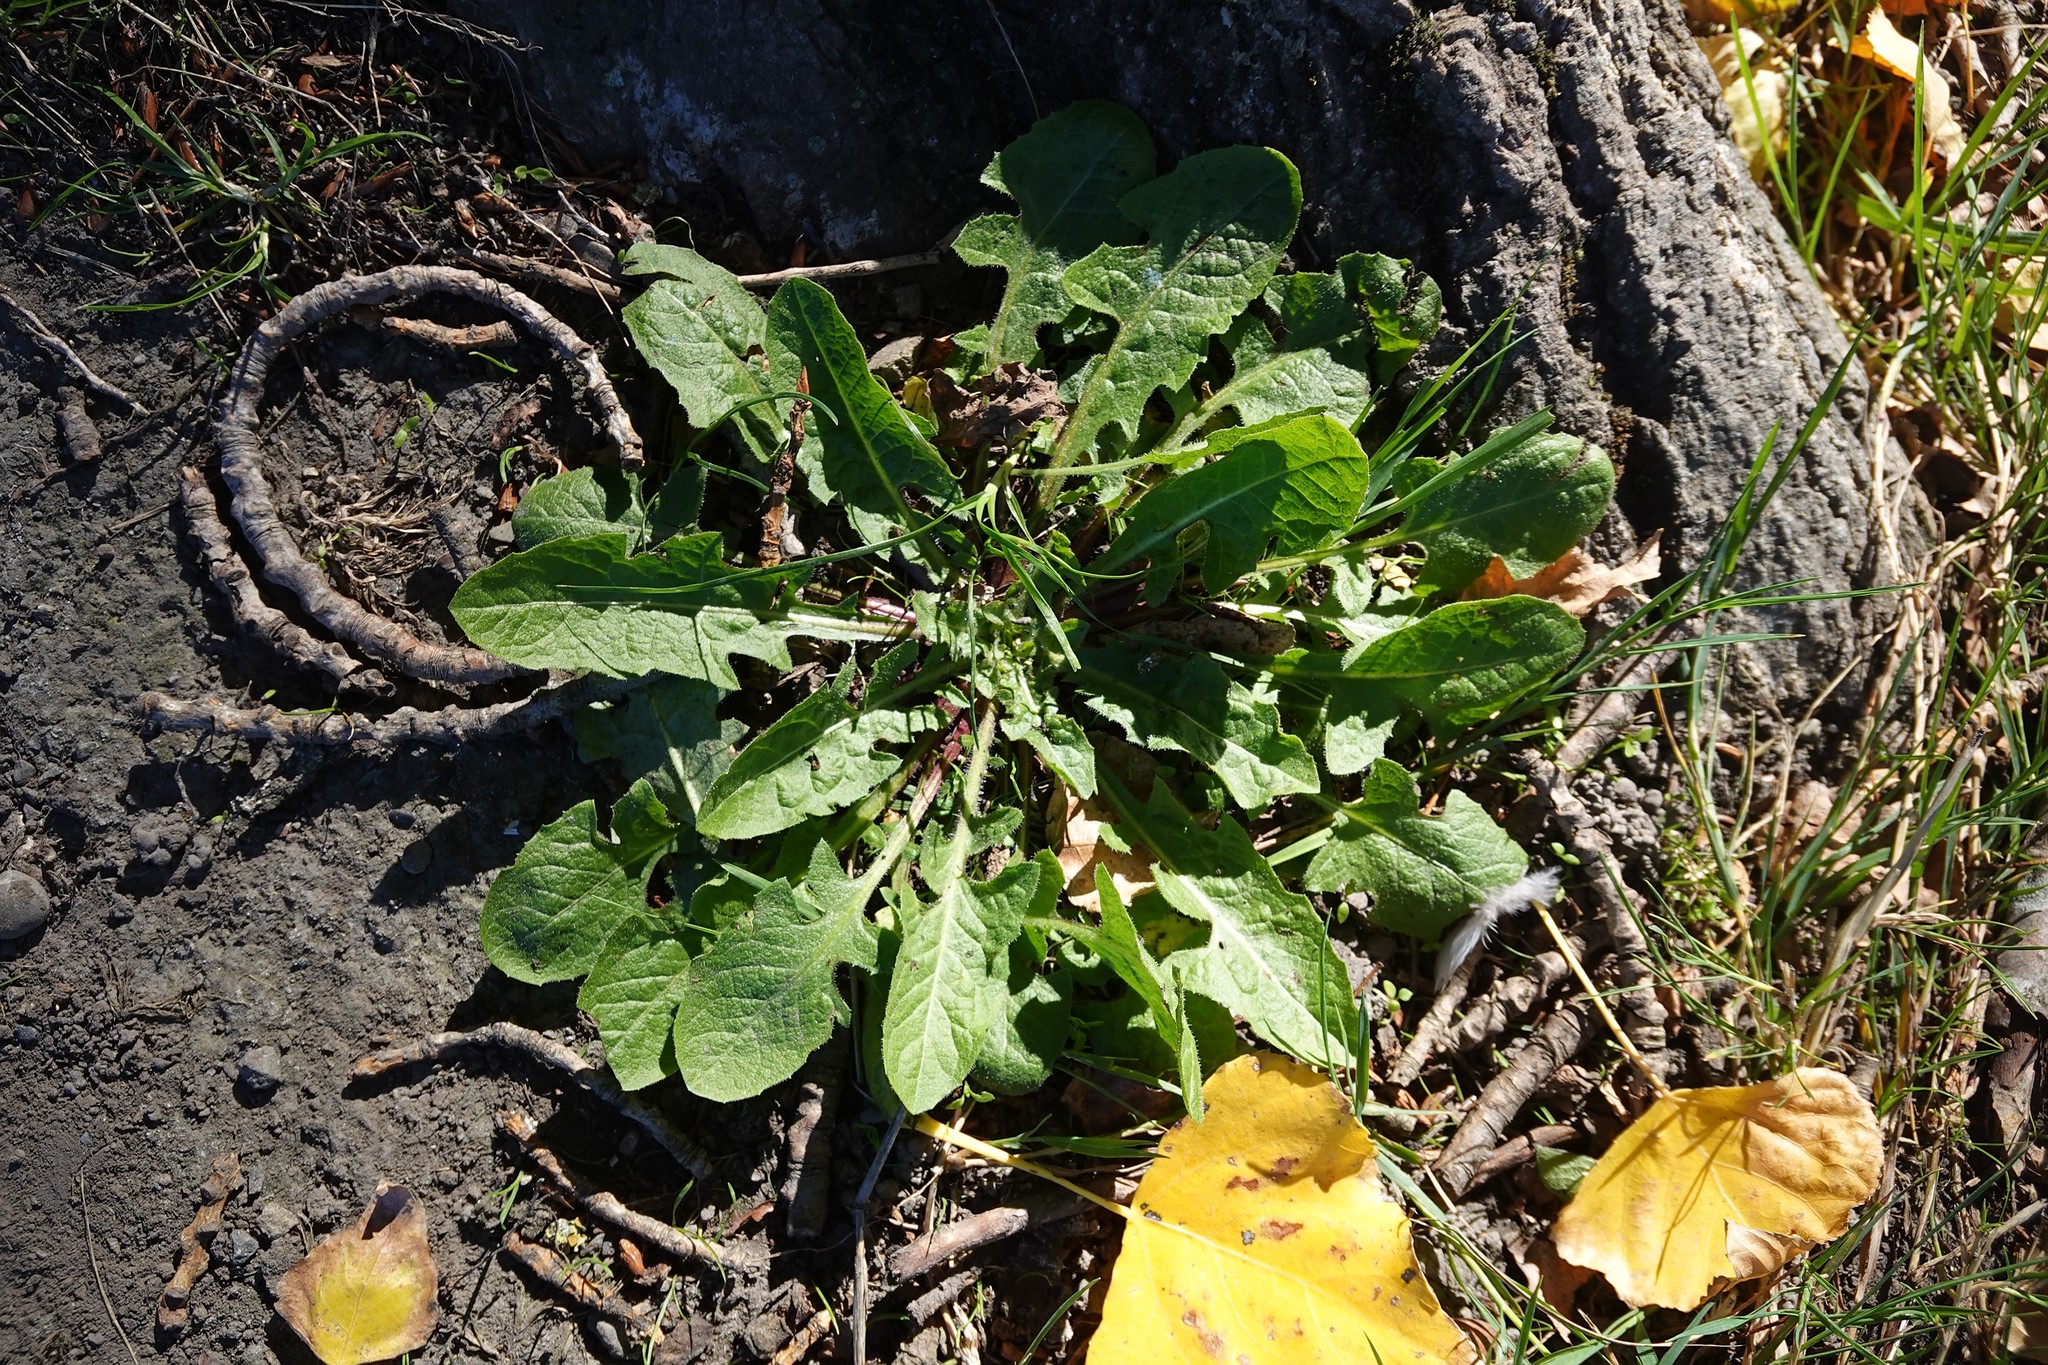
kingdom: Plantae
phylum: Tracheophyta
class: Magnoliopsida
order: Asterales
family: Asteraceae
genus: Taraxacum
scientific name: Taraxacum officinale
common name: Common dandelion
